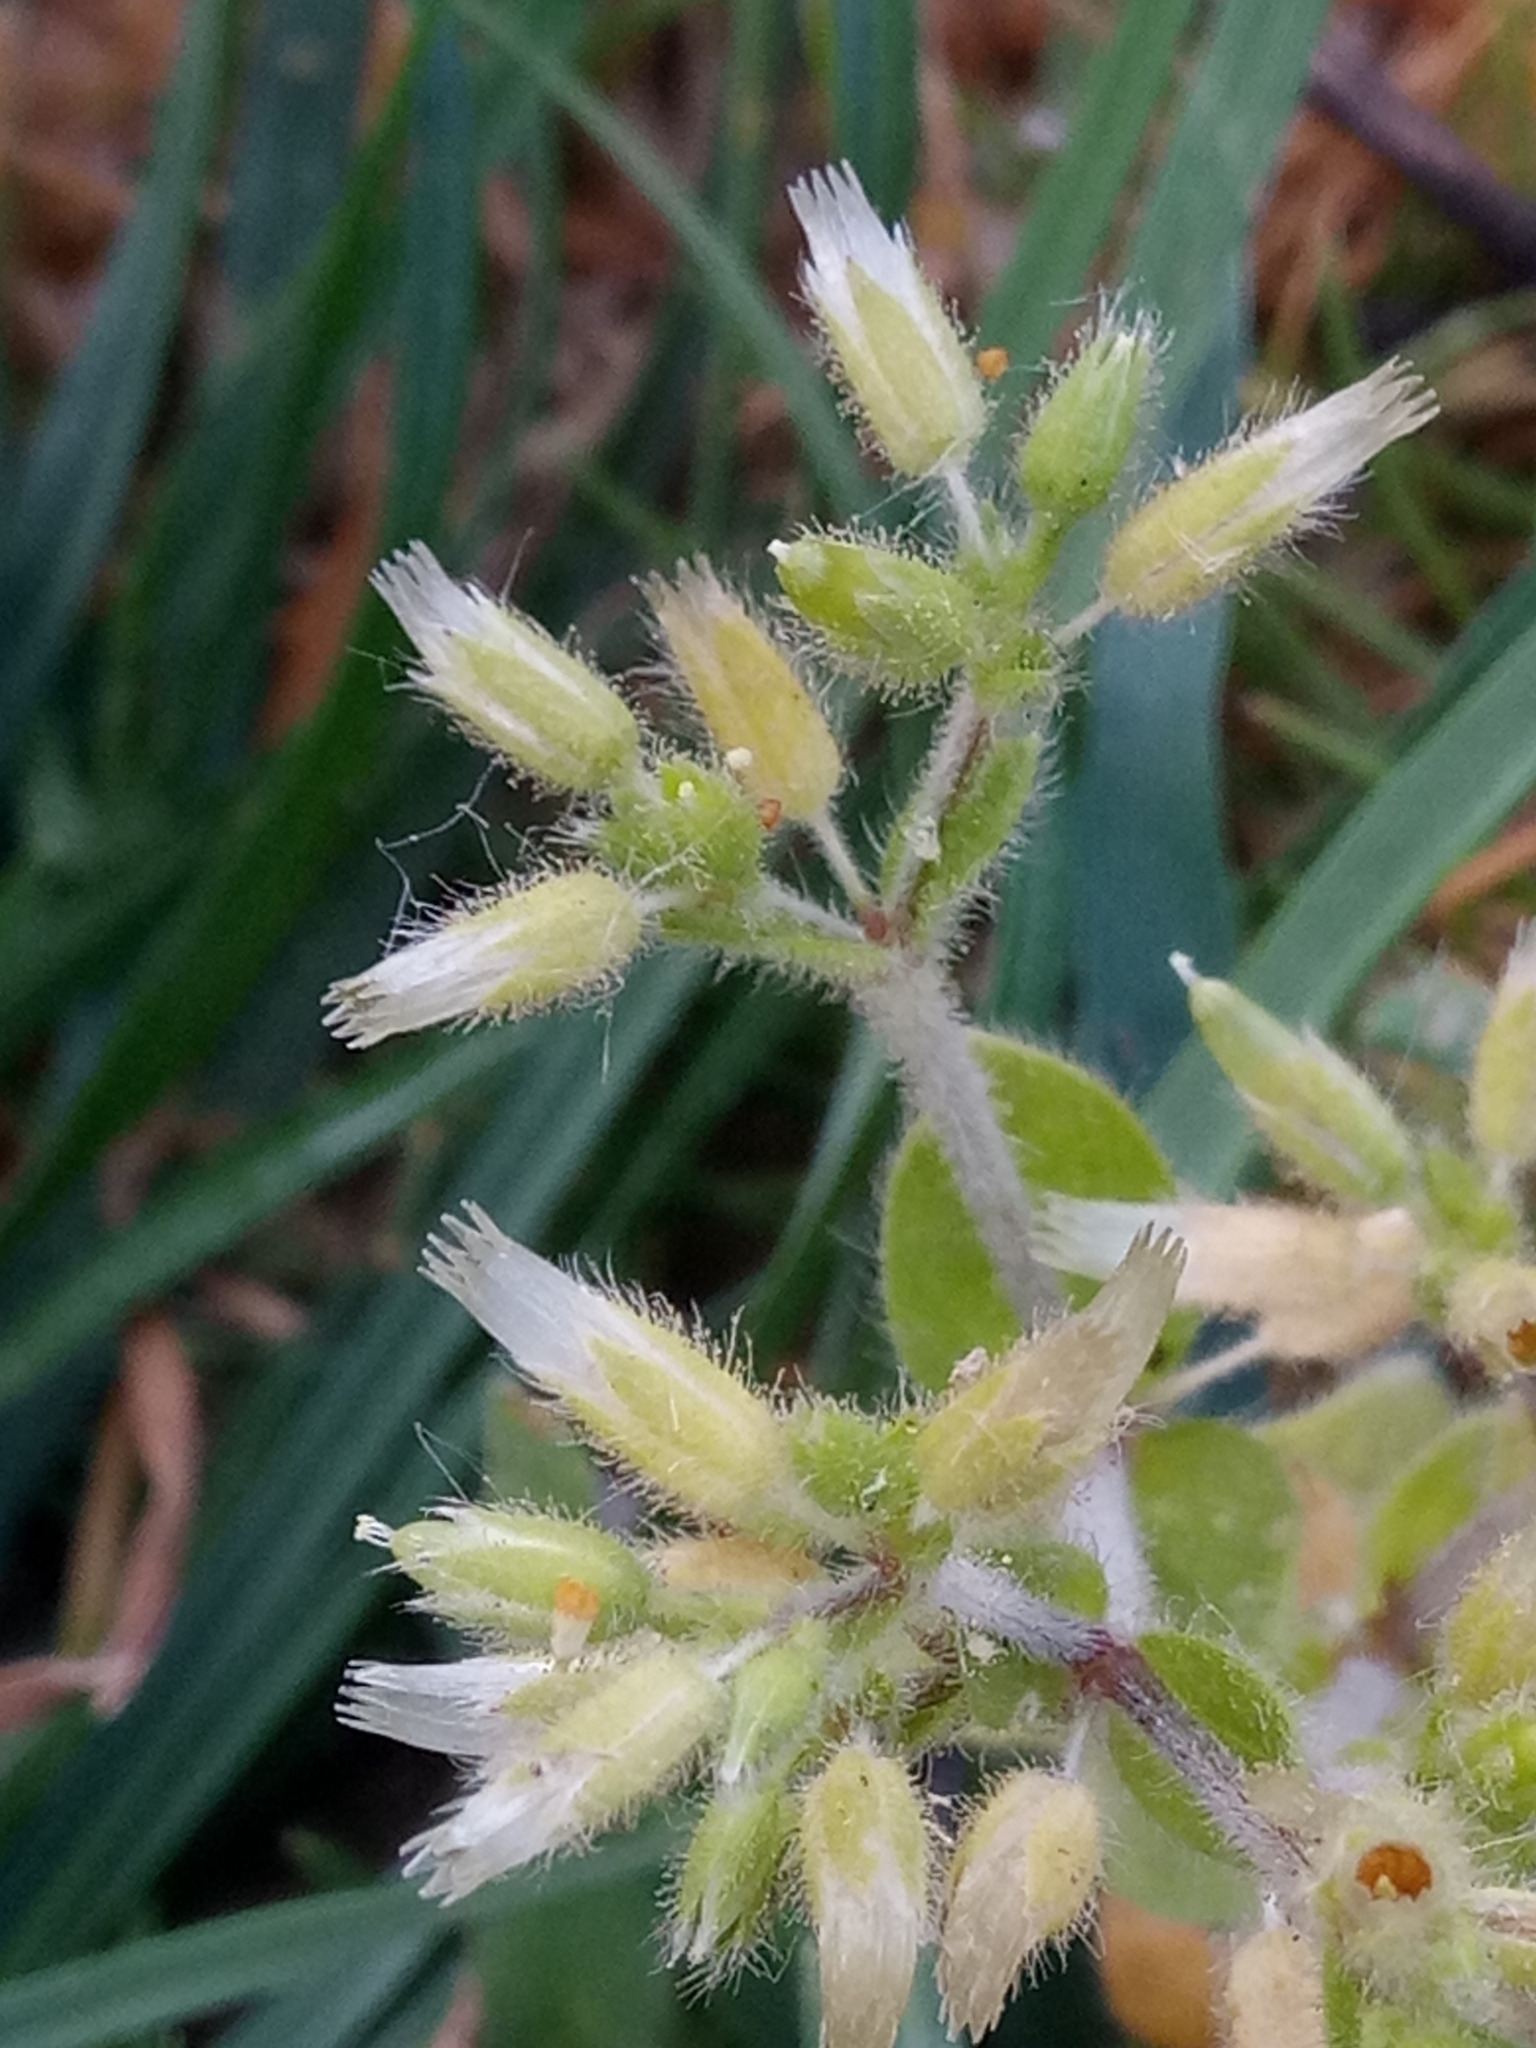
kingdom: Plantae
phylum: Tracheophyta
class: Magnoliopsida
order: Caryophyllales
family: Caryophyllaceae
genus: Cerastium
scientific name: Cerastium glomeratum
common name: Sticky chickweed
